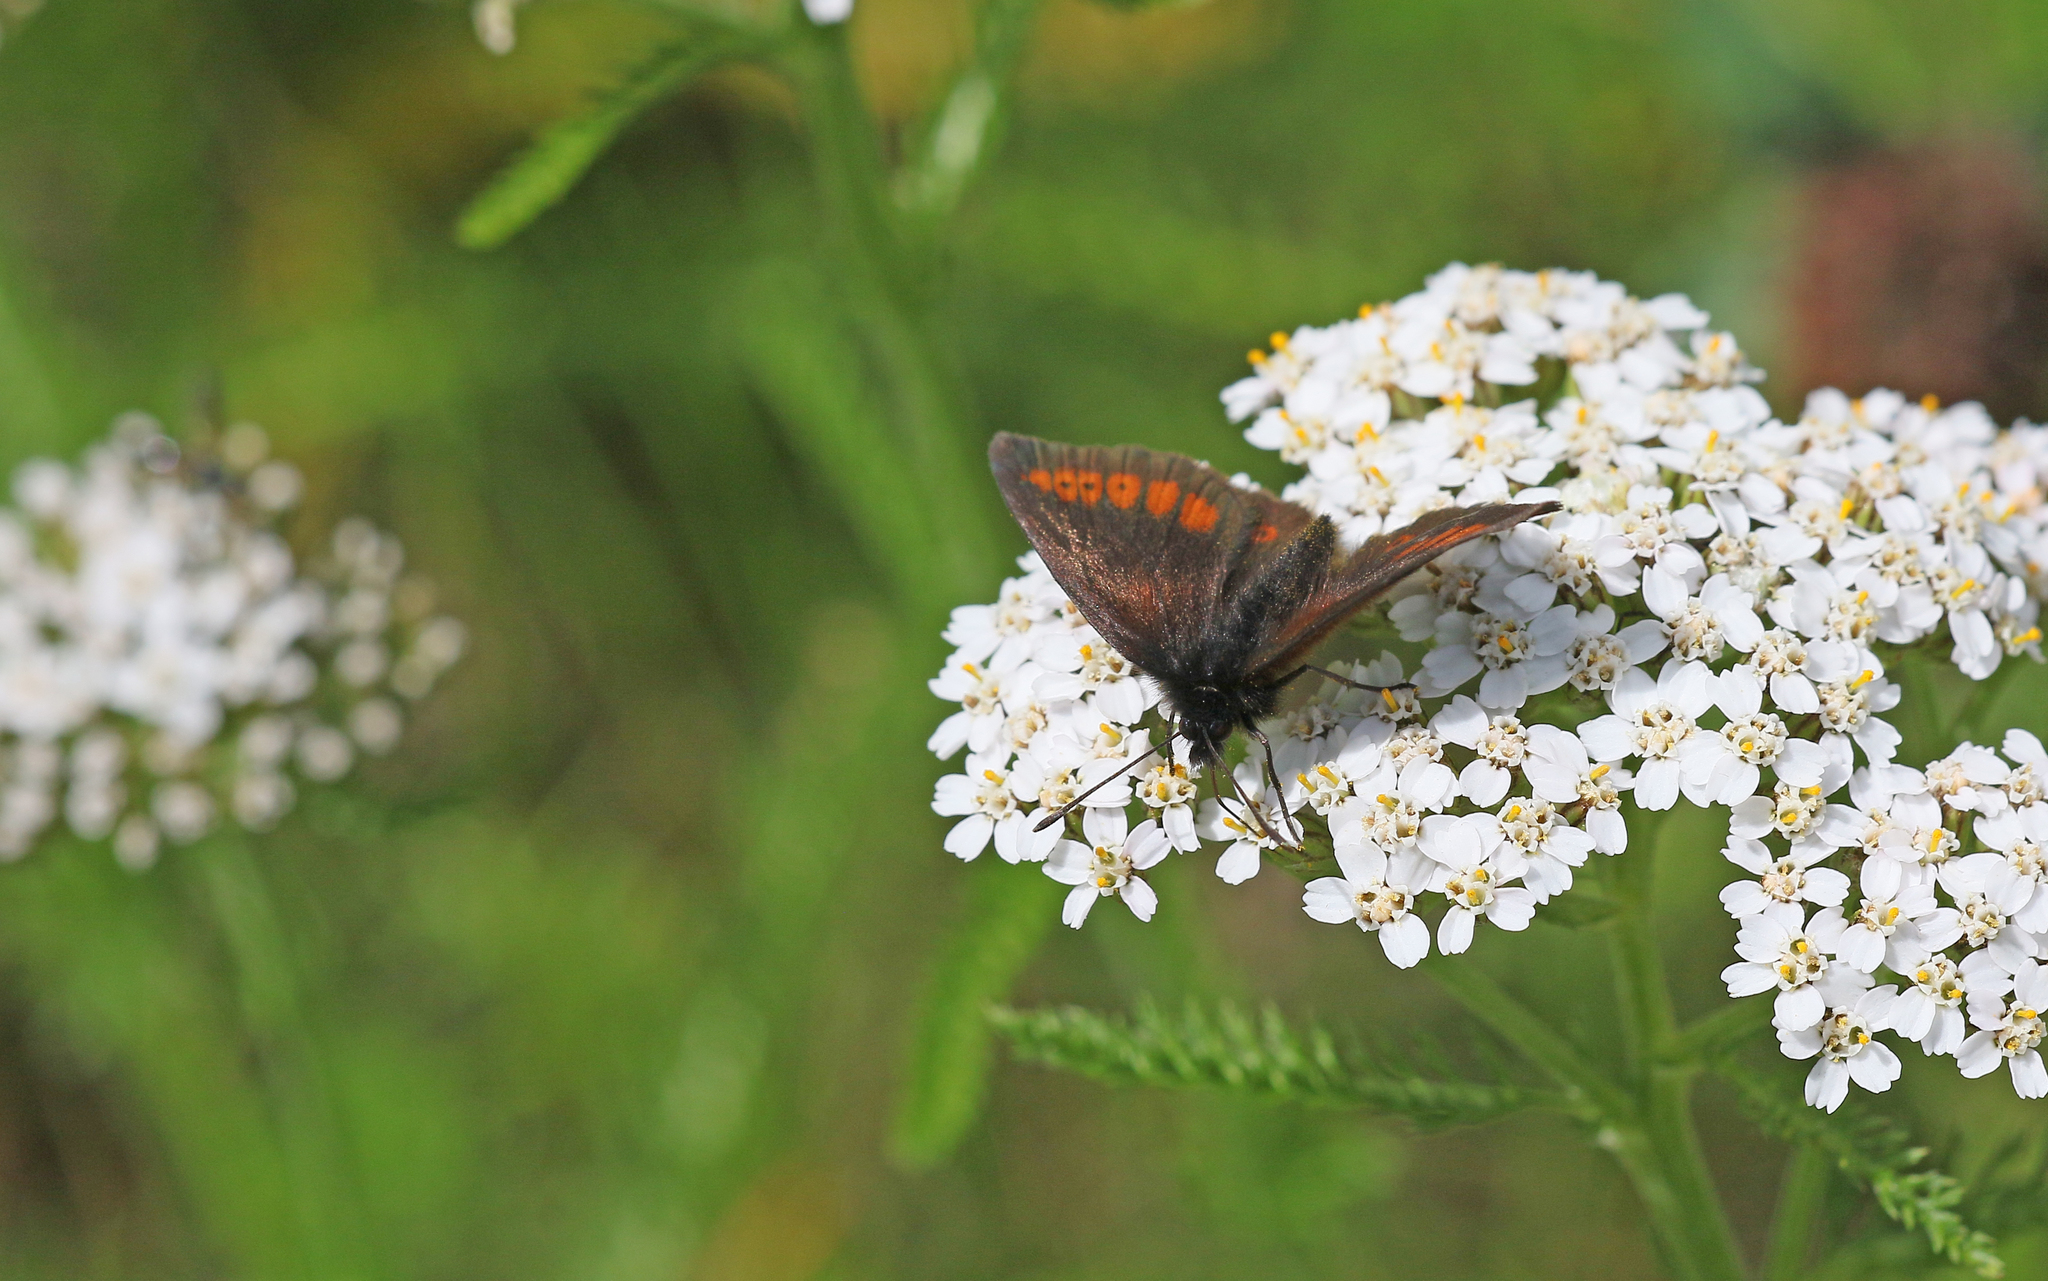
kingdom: Animalia
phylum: Arthropoda
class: Insecta
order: Lepidoptera
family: Nymphalidae
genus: Erebia
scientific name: Erebia melampus
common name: Lesser mountain ringlet
